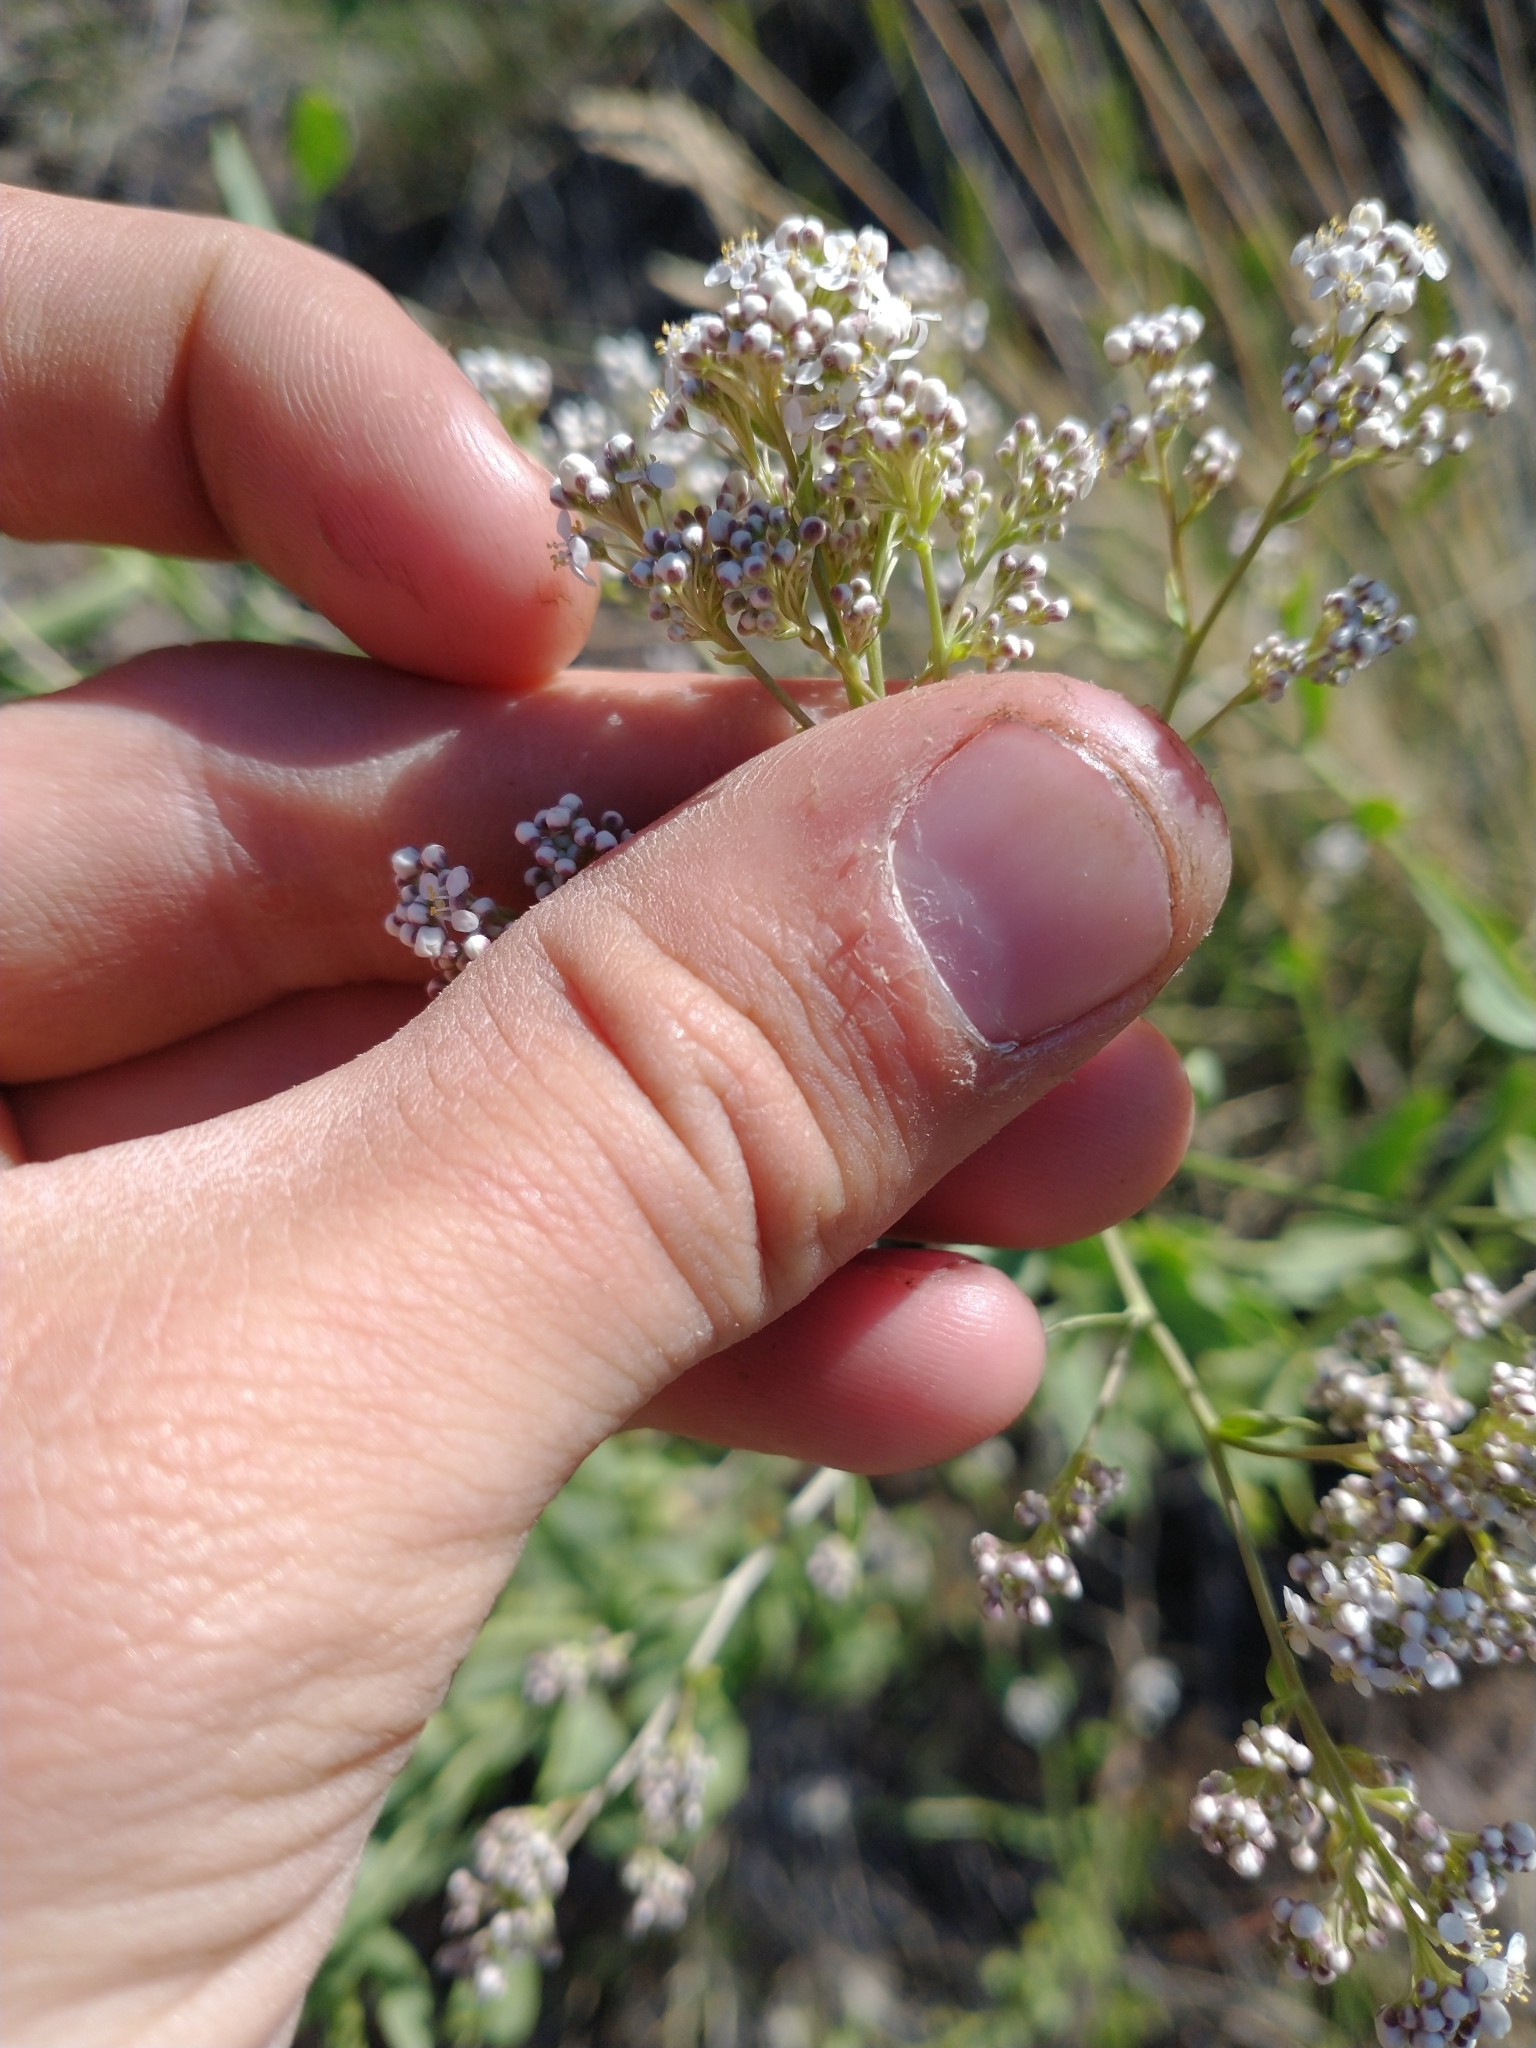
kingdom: Plantae
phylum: Tracheophyta
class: Magnoliopsida
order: Brassicales
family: Brassicaceae
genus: Lepidium
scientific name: Lepidium latifolium
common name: Dittander
